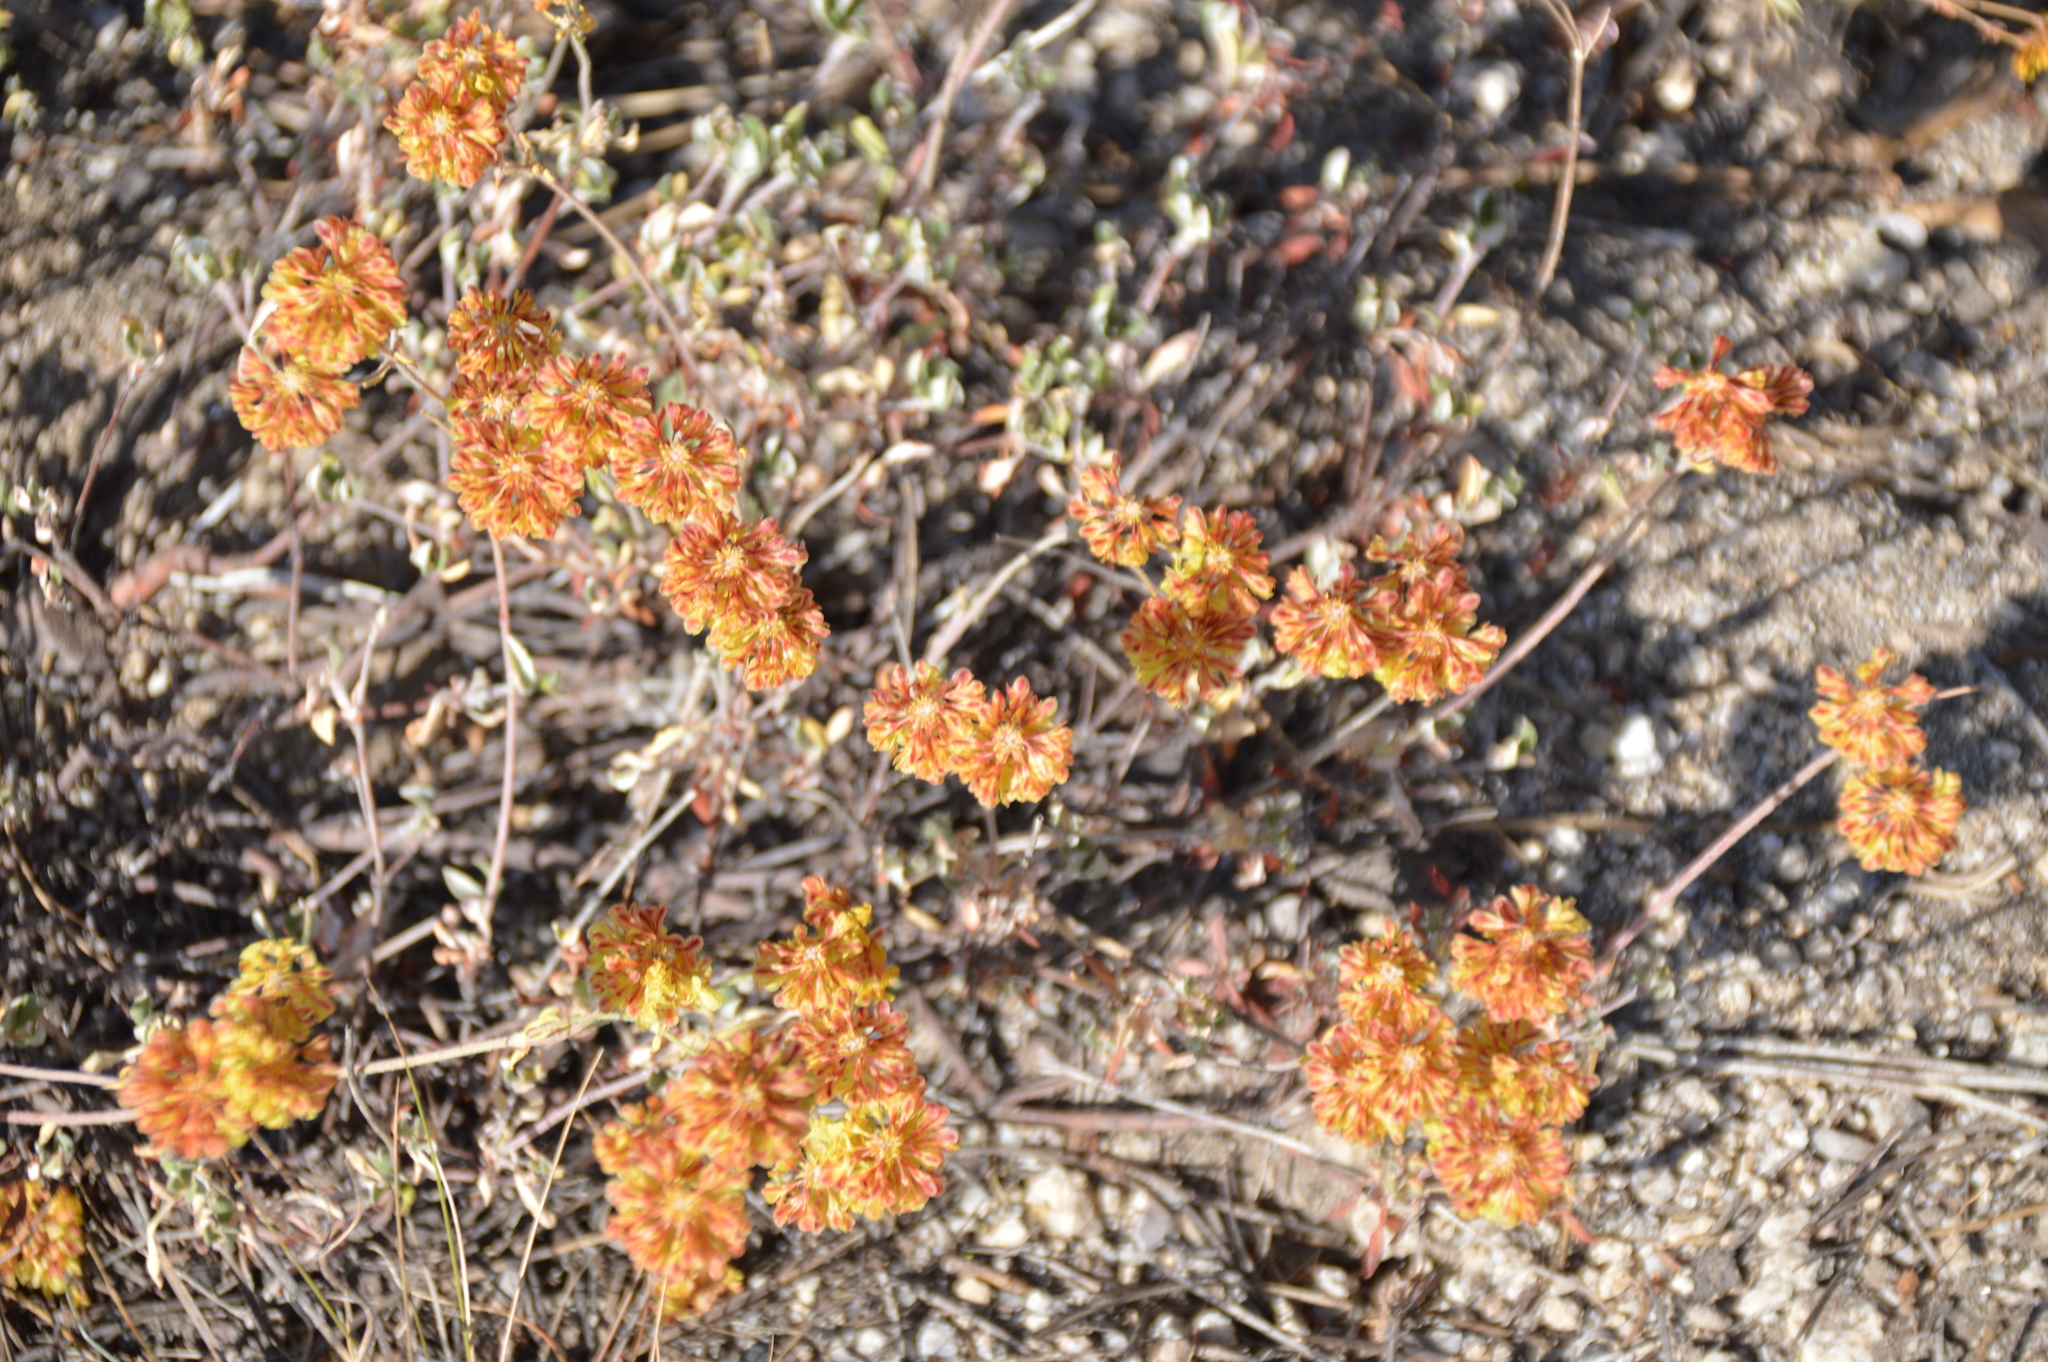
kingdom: Plantae
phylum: Tracheophyta
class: Magnoliopsida
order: Caryophyllales
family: Polygonaceae
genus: Eriogonum
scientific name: Eriogonum umbellatum
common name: Sulfur-buckwheat
